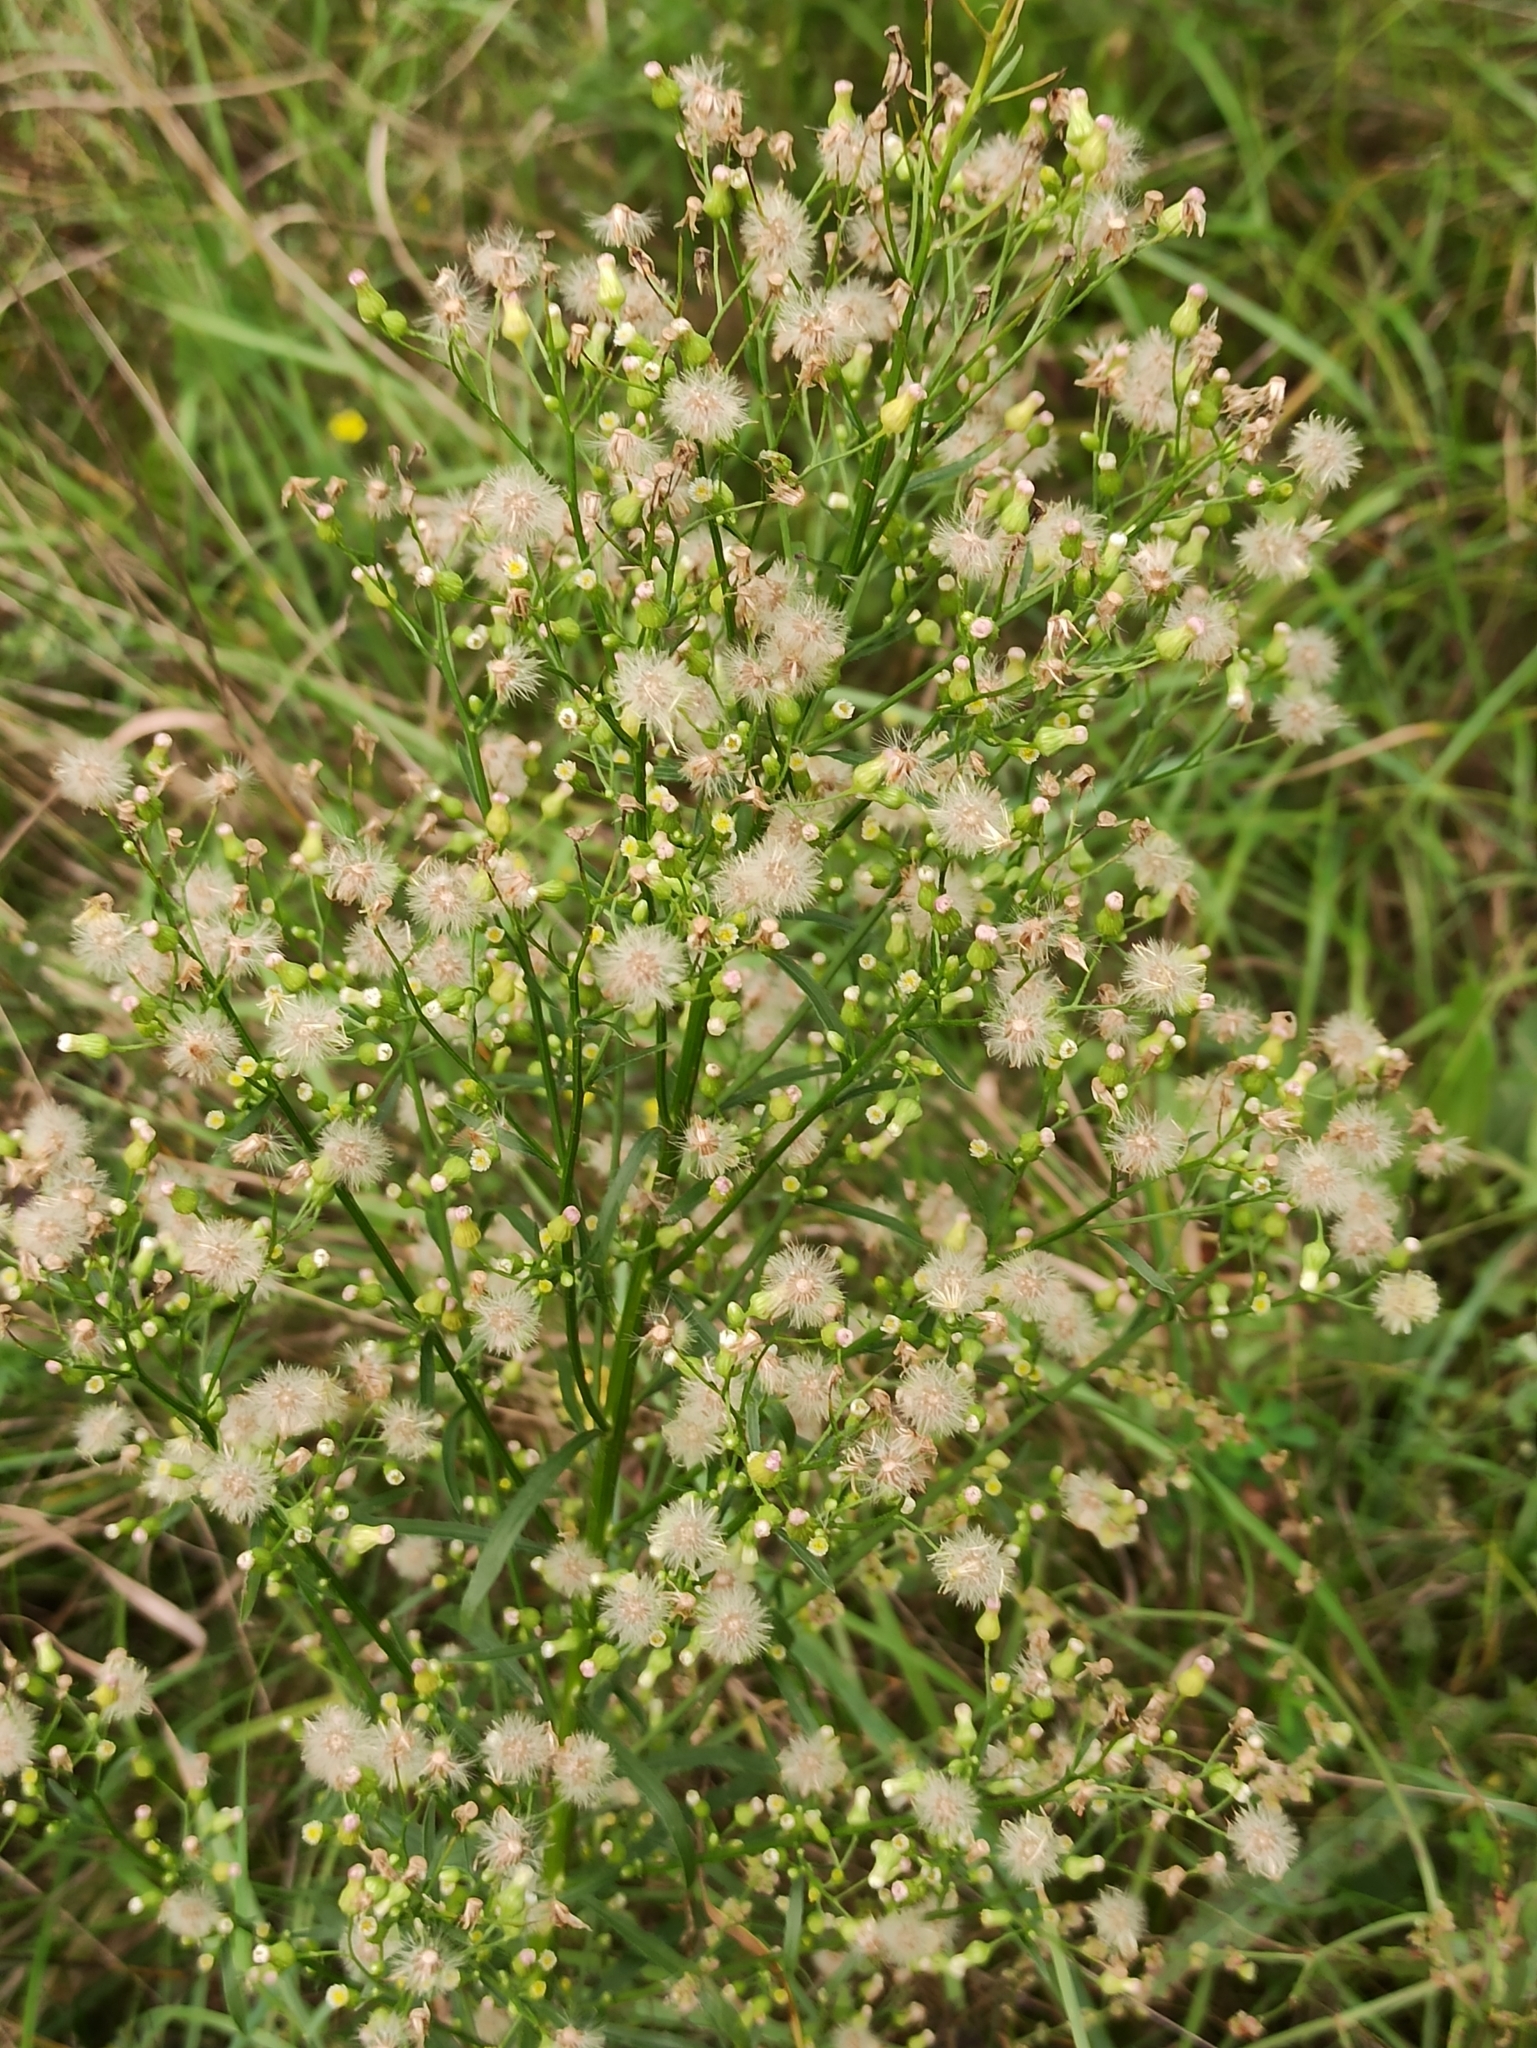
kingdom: Plantae
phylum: Tracheophyta
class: Magnoliopsida
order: Asterales
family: Asteraceae
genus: Erigeron
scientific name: Erigeron canadensis
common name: Canadian fleabane
